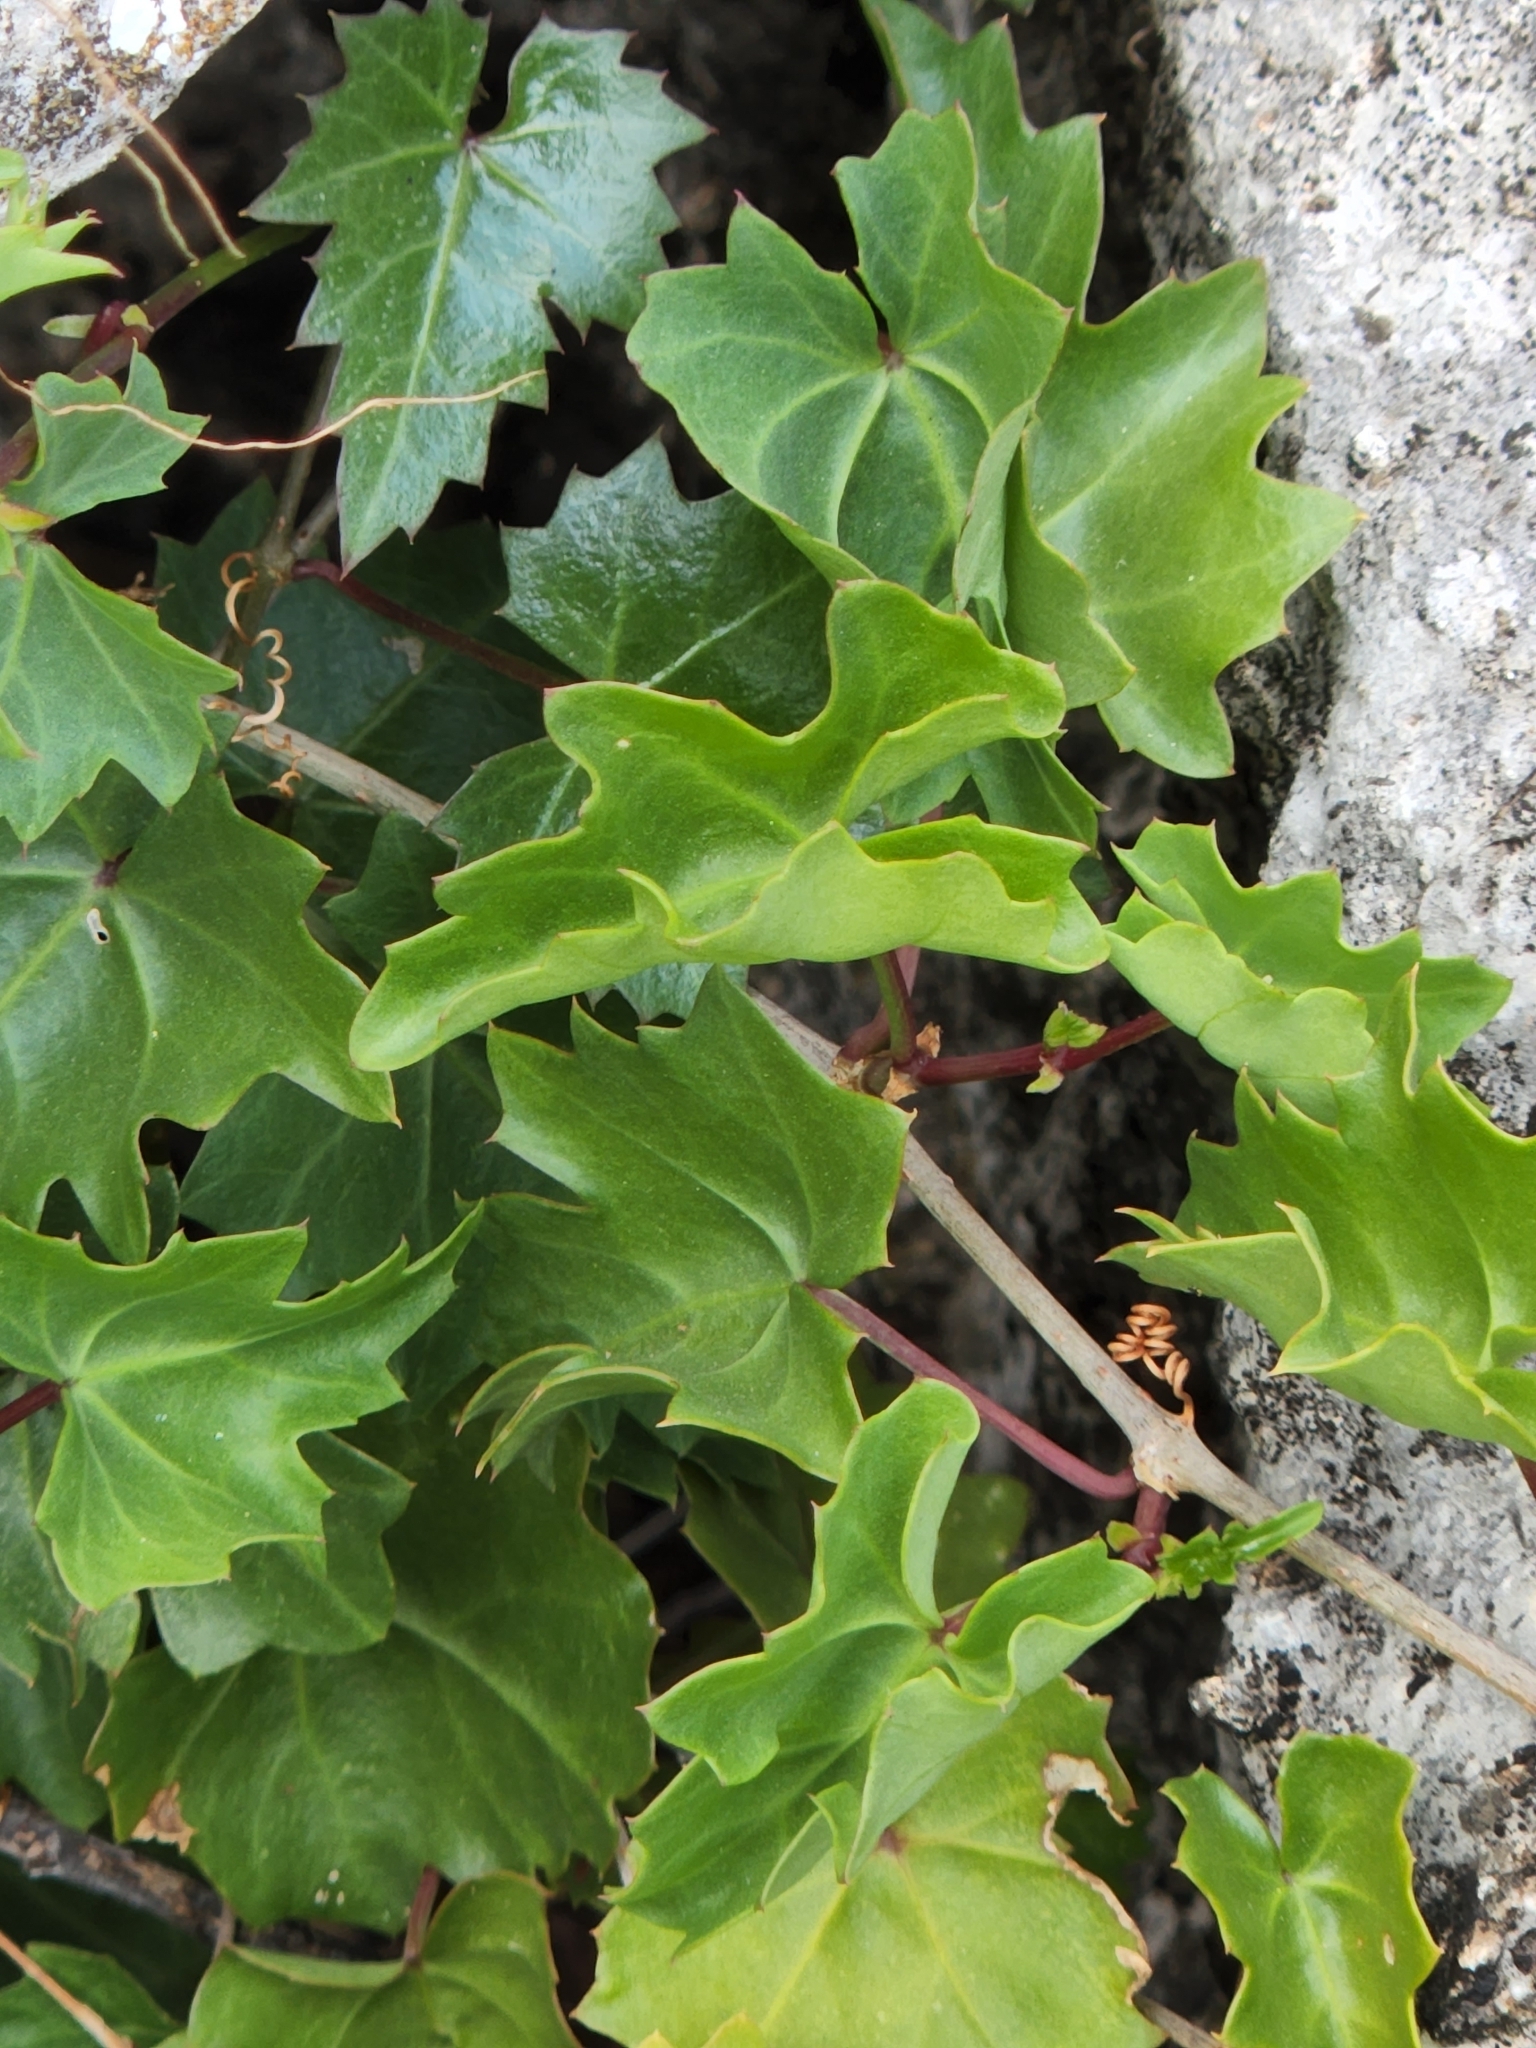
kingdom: Plantae
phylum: Tracheophyta
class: Magnoliopsida
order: Vitales
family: Vitaceae
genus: Cissus
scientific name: Cissus trifoliata
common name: Vine-sorrel
